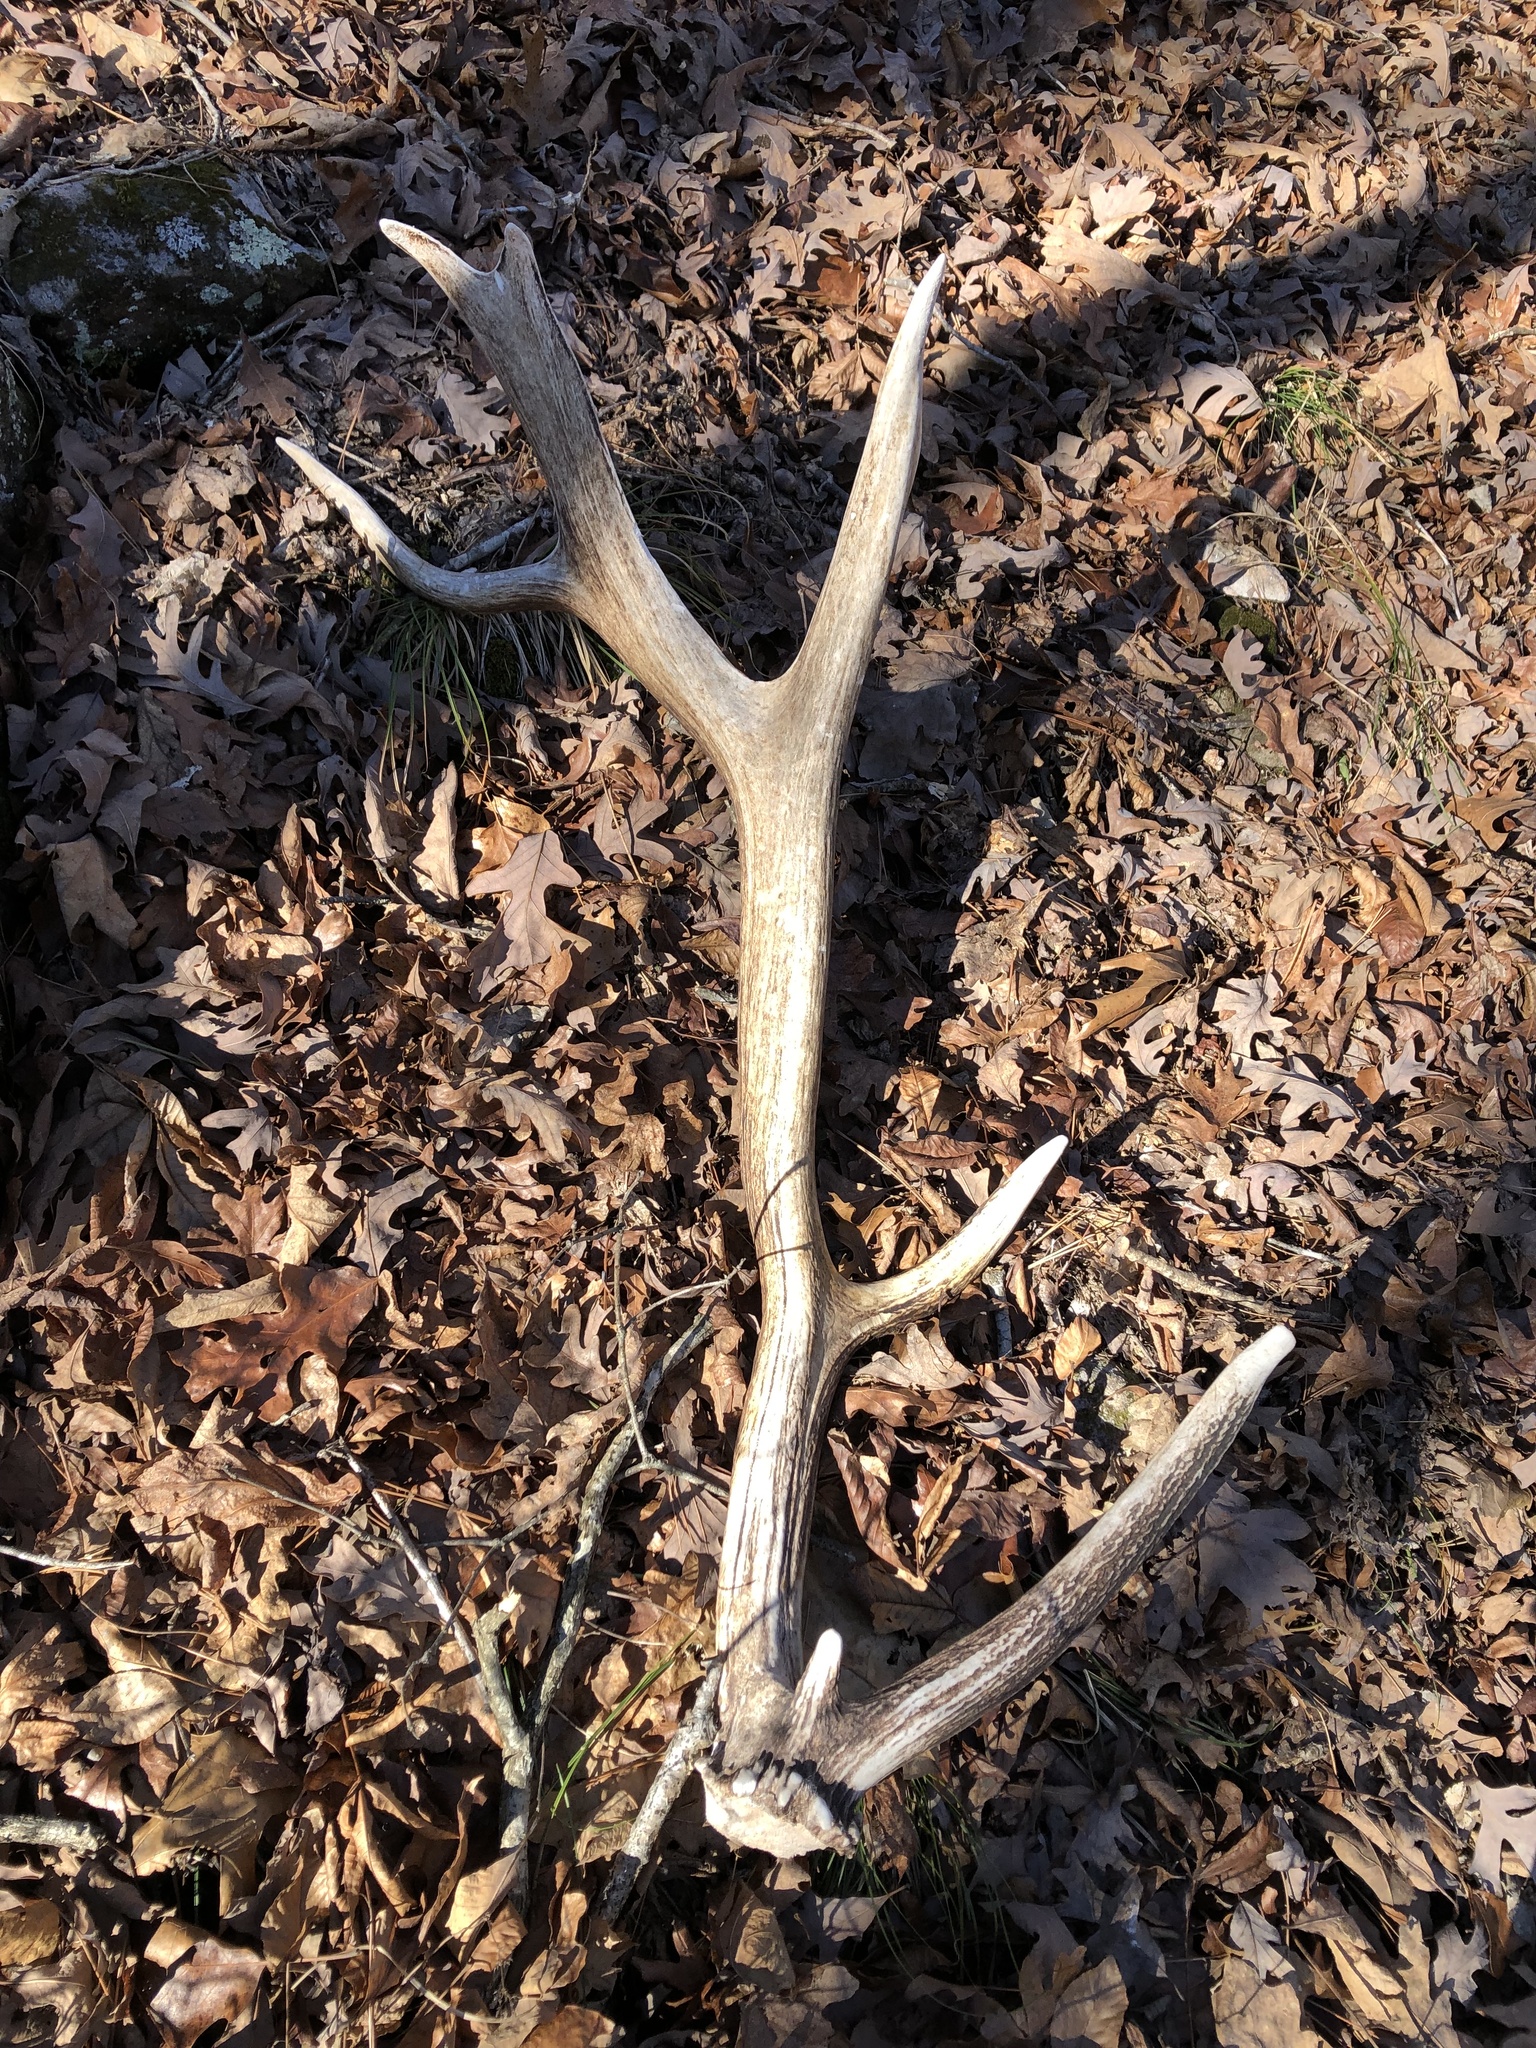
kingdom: Animalia
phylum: Chordata
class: Mammalia
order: Artiodactyla
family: Cervidae
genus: Cervus
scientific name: Cervus elaphus
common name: Red deer
